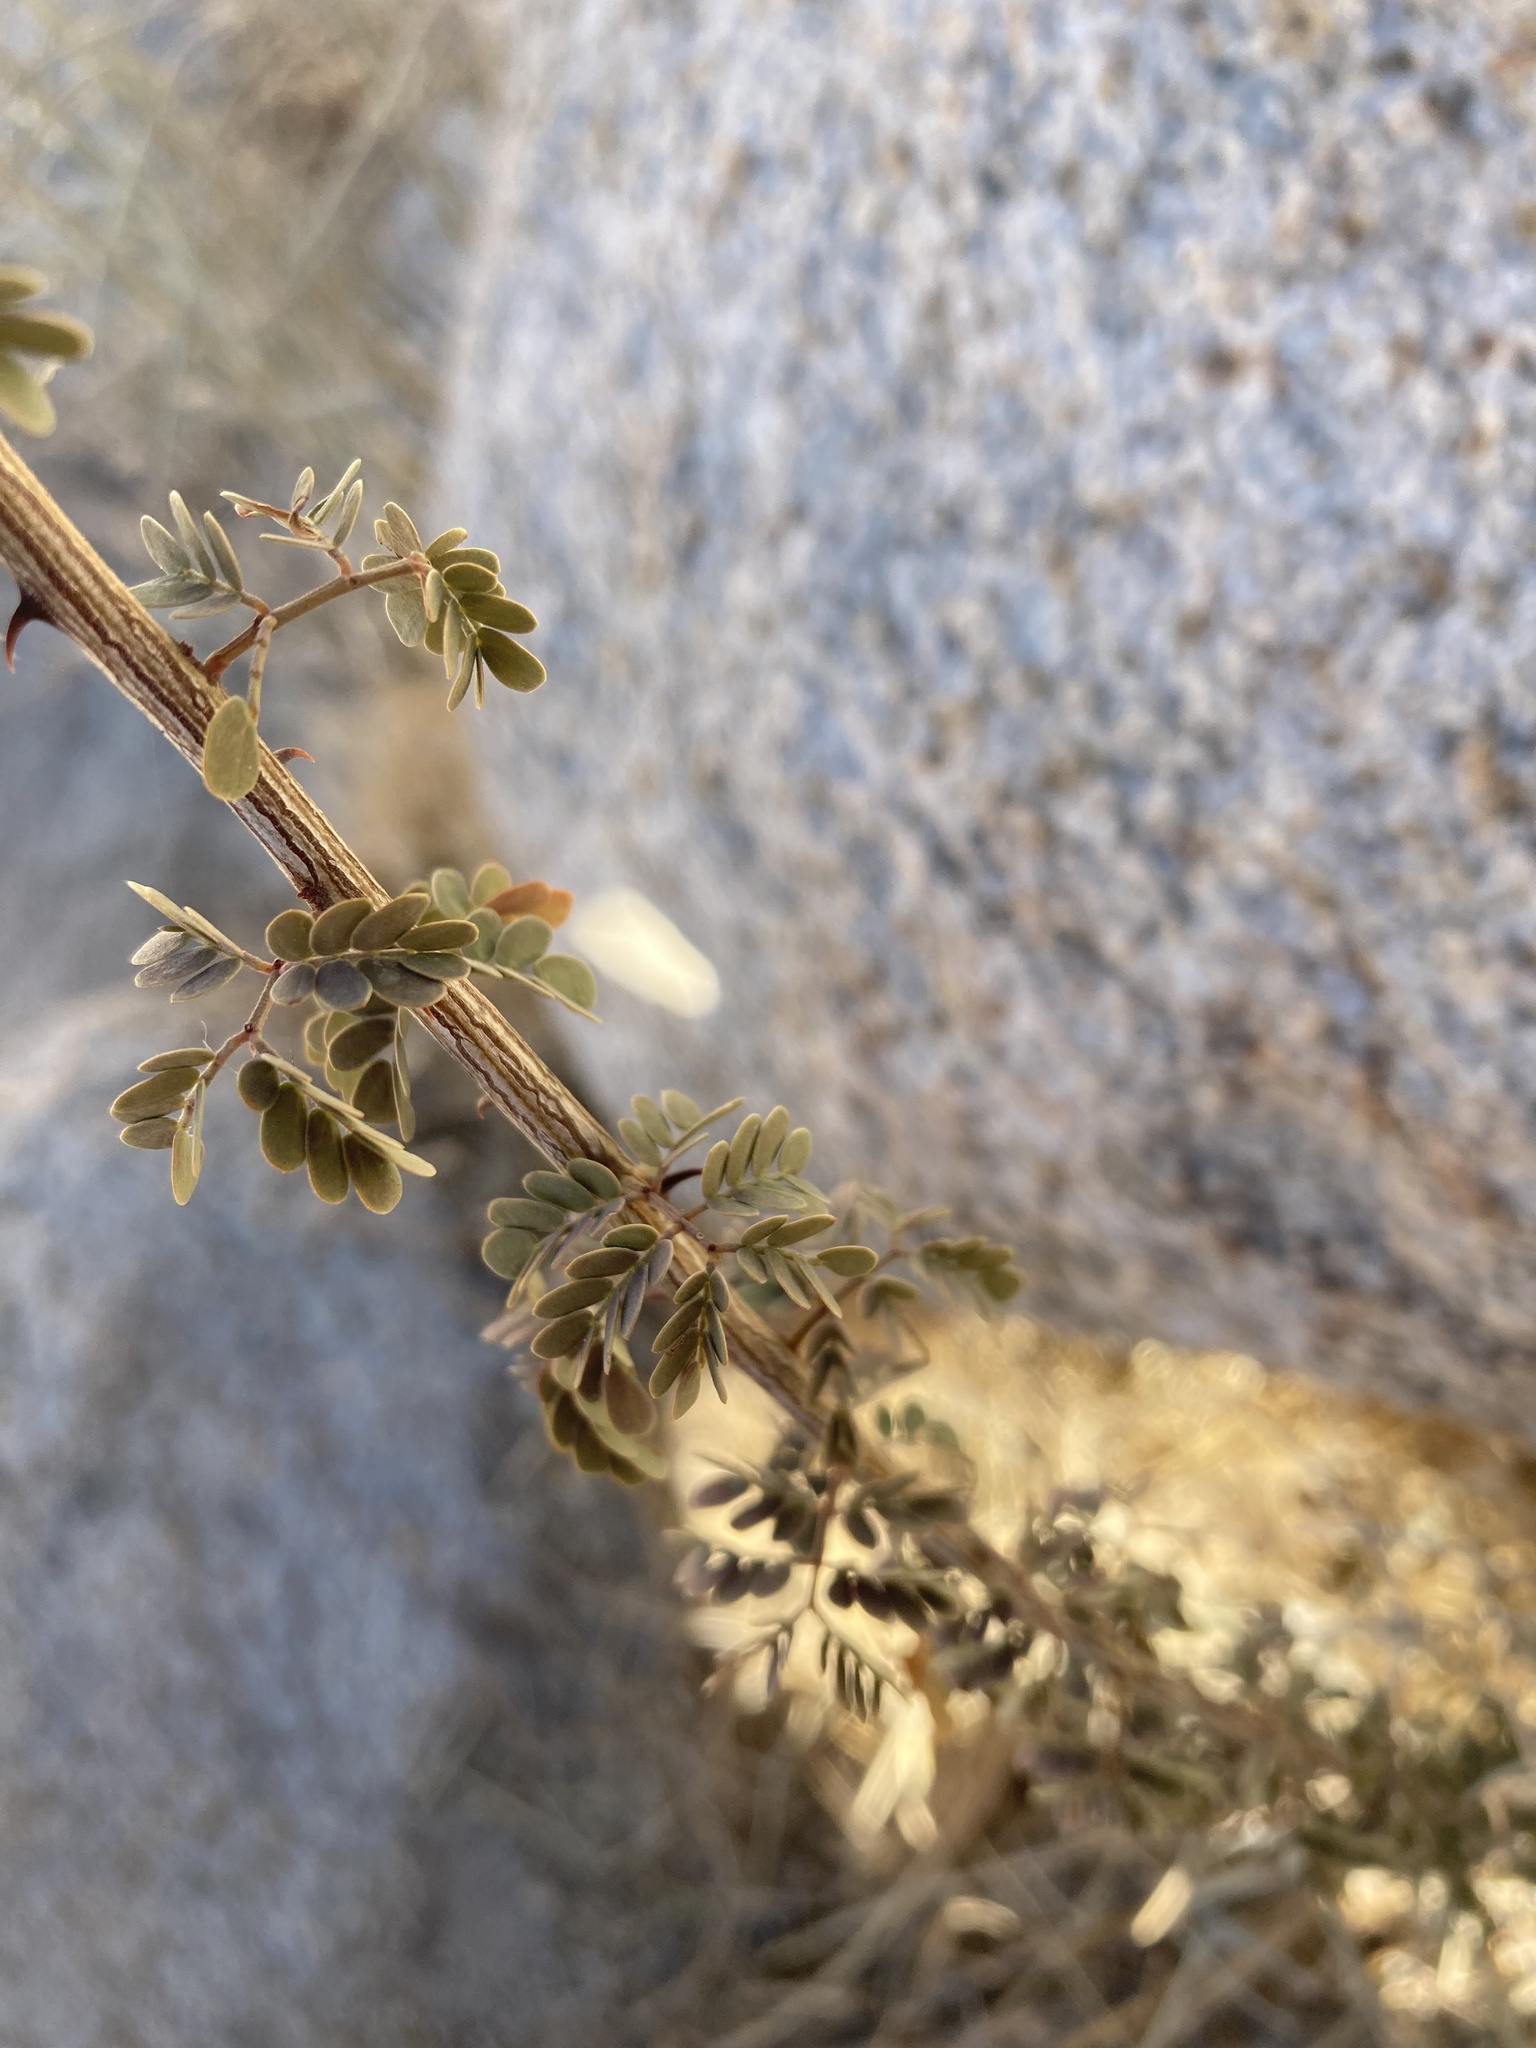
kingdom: Plantae
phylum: Tracheophyta
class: Magnoliopsida
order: Fabales
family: Fabaceae
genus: Senegalia
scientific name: Senegalia greggii
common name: Texas-mimosa
